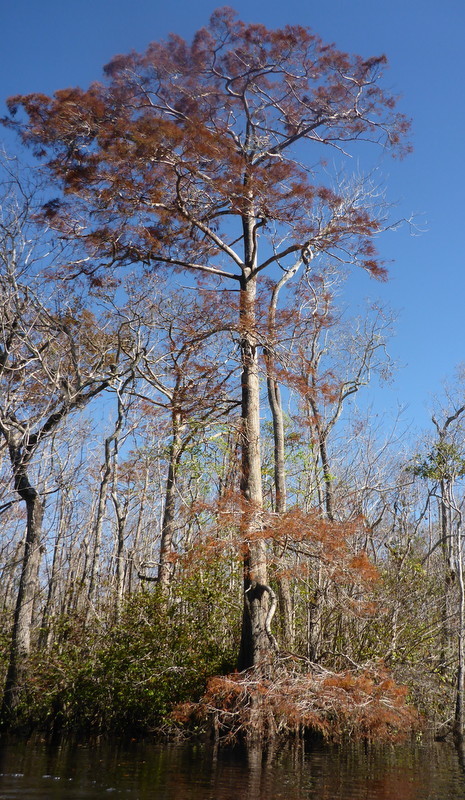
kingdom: Plantae
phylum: Tracheophyta
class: Pinopsida
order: Pinales
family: Cupressaceae
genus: Taxodium
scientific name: Taxodium distichum
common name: Bald cypress
